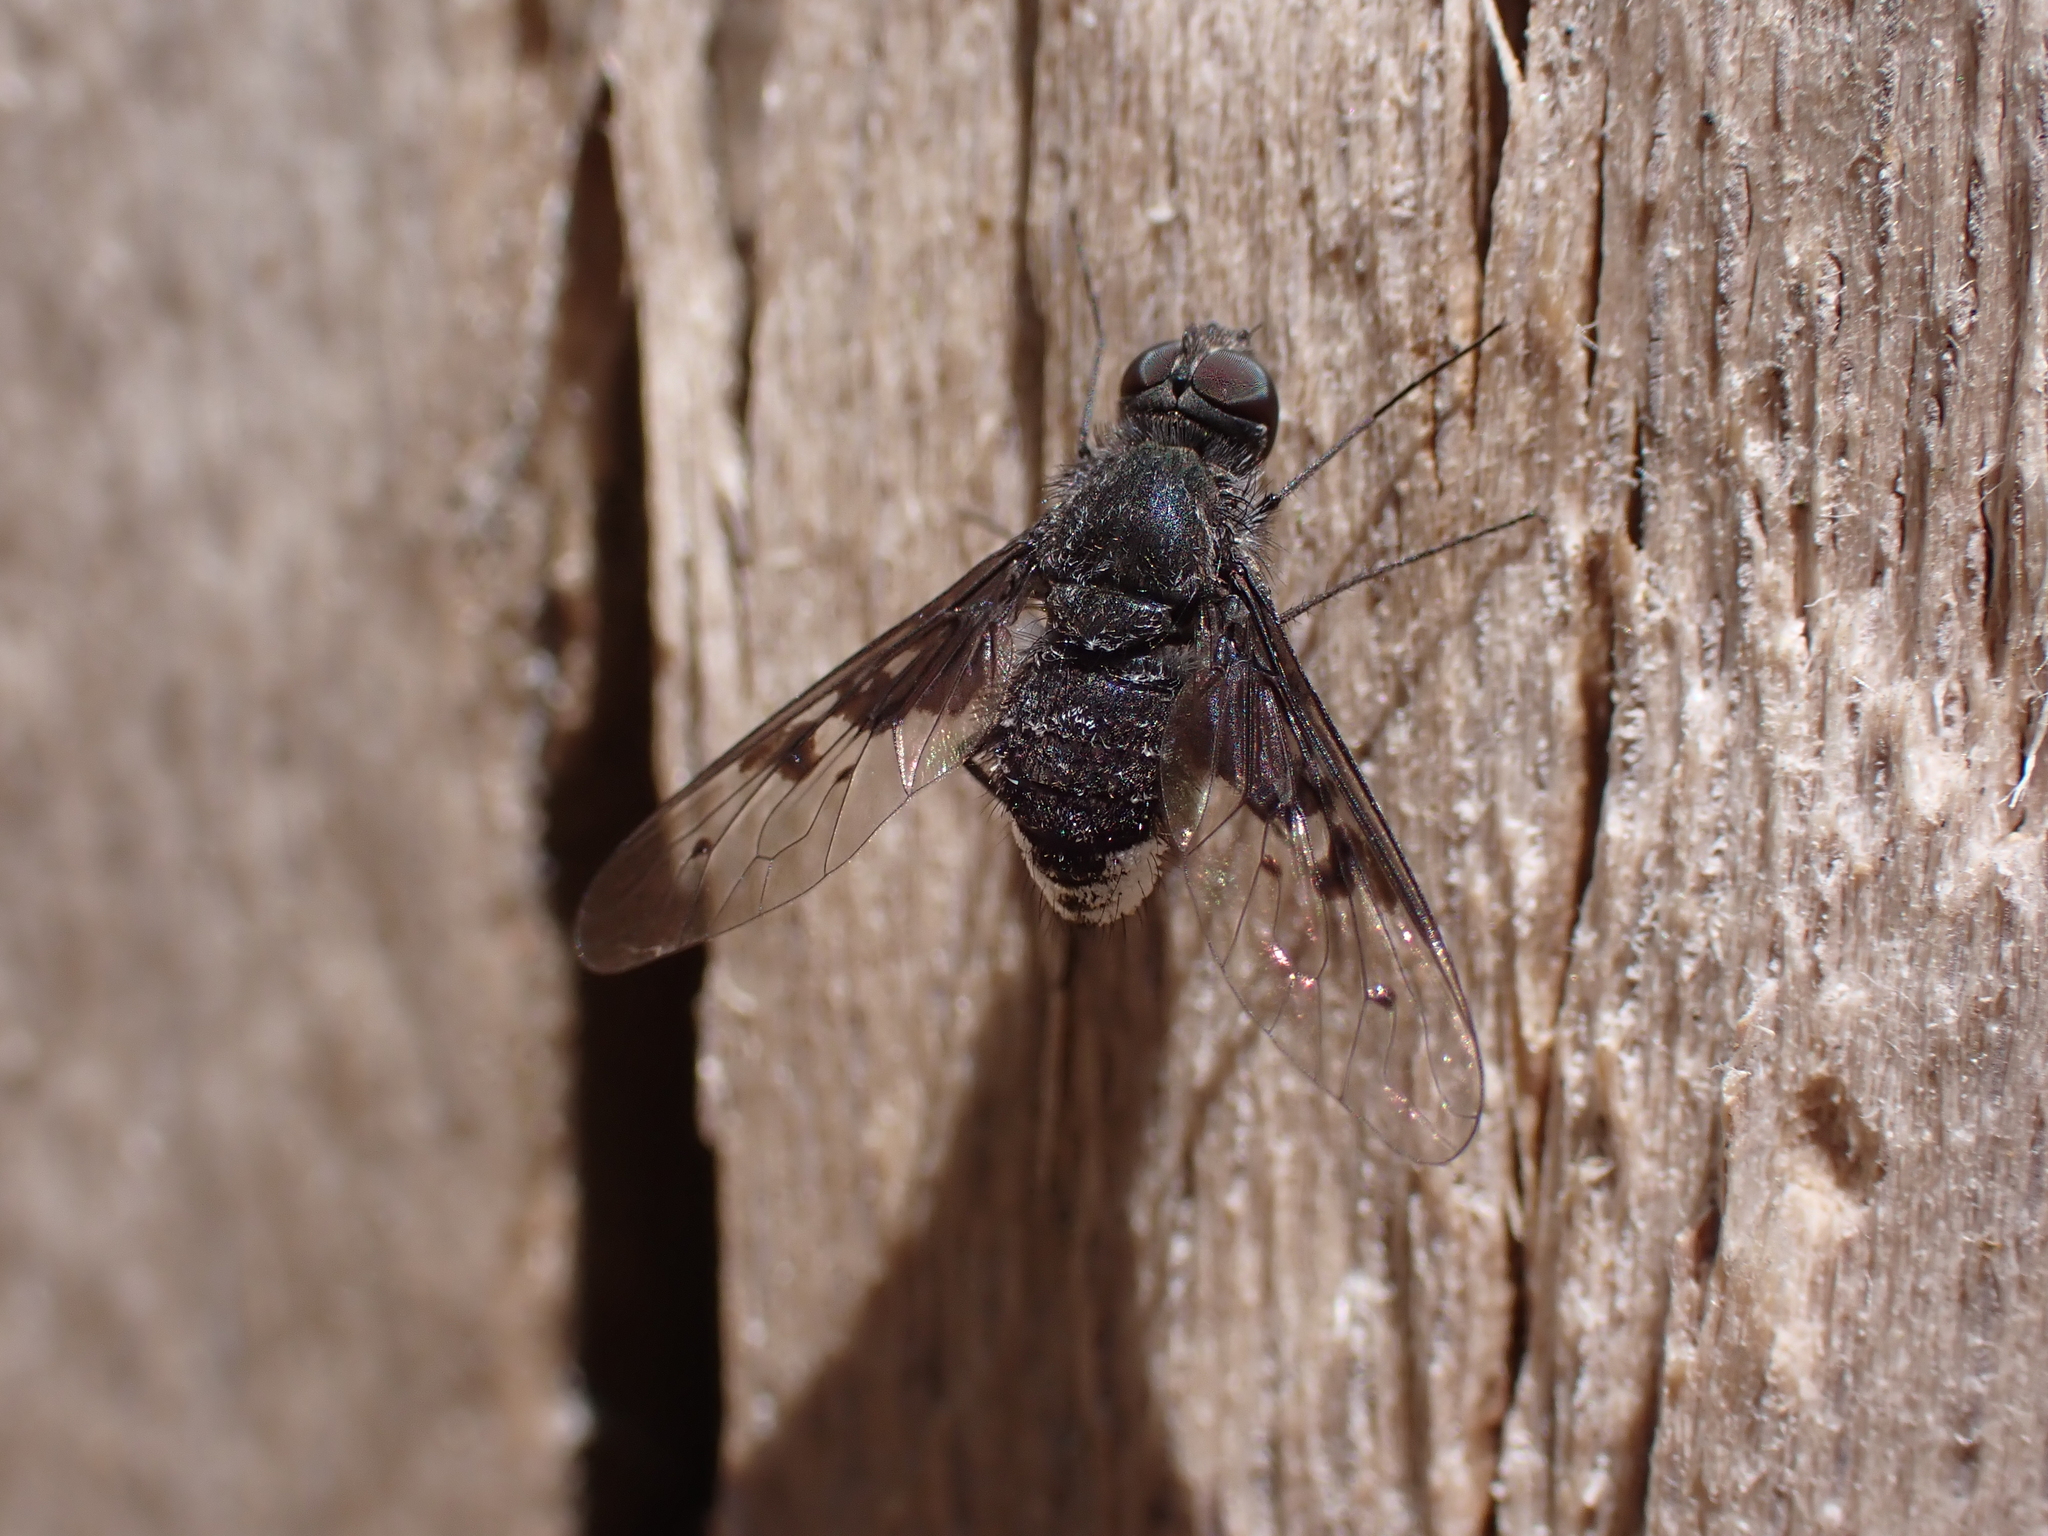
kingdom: Animalia
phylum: Arthropoda
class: Insecta
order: Diptera
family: Bombyliidae
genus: Anthrax
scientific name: Anthrax trifasciatus
